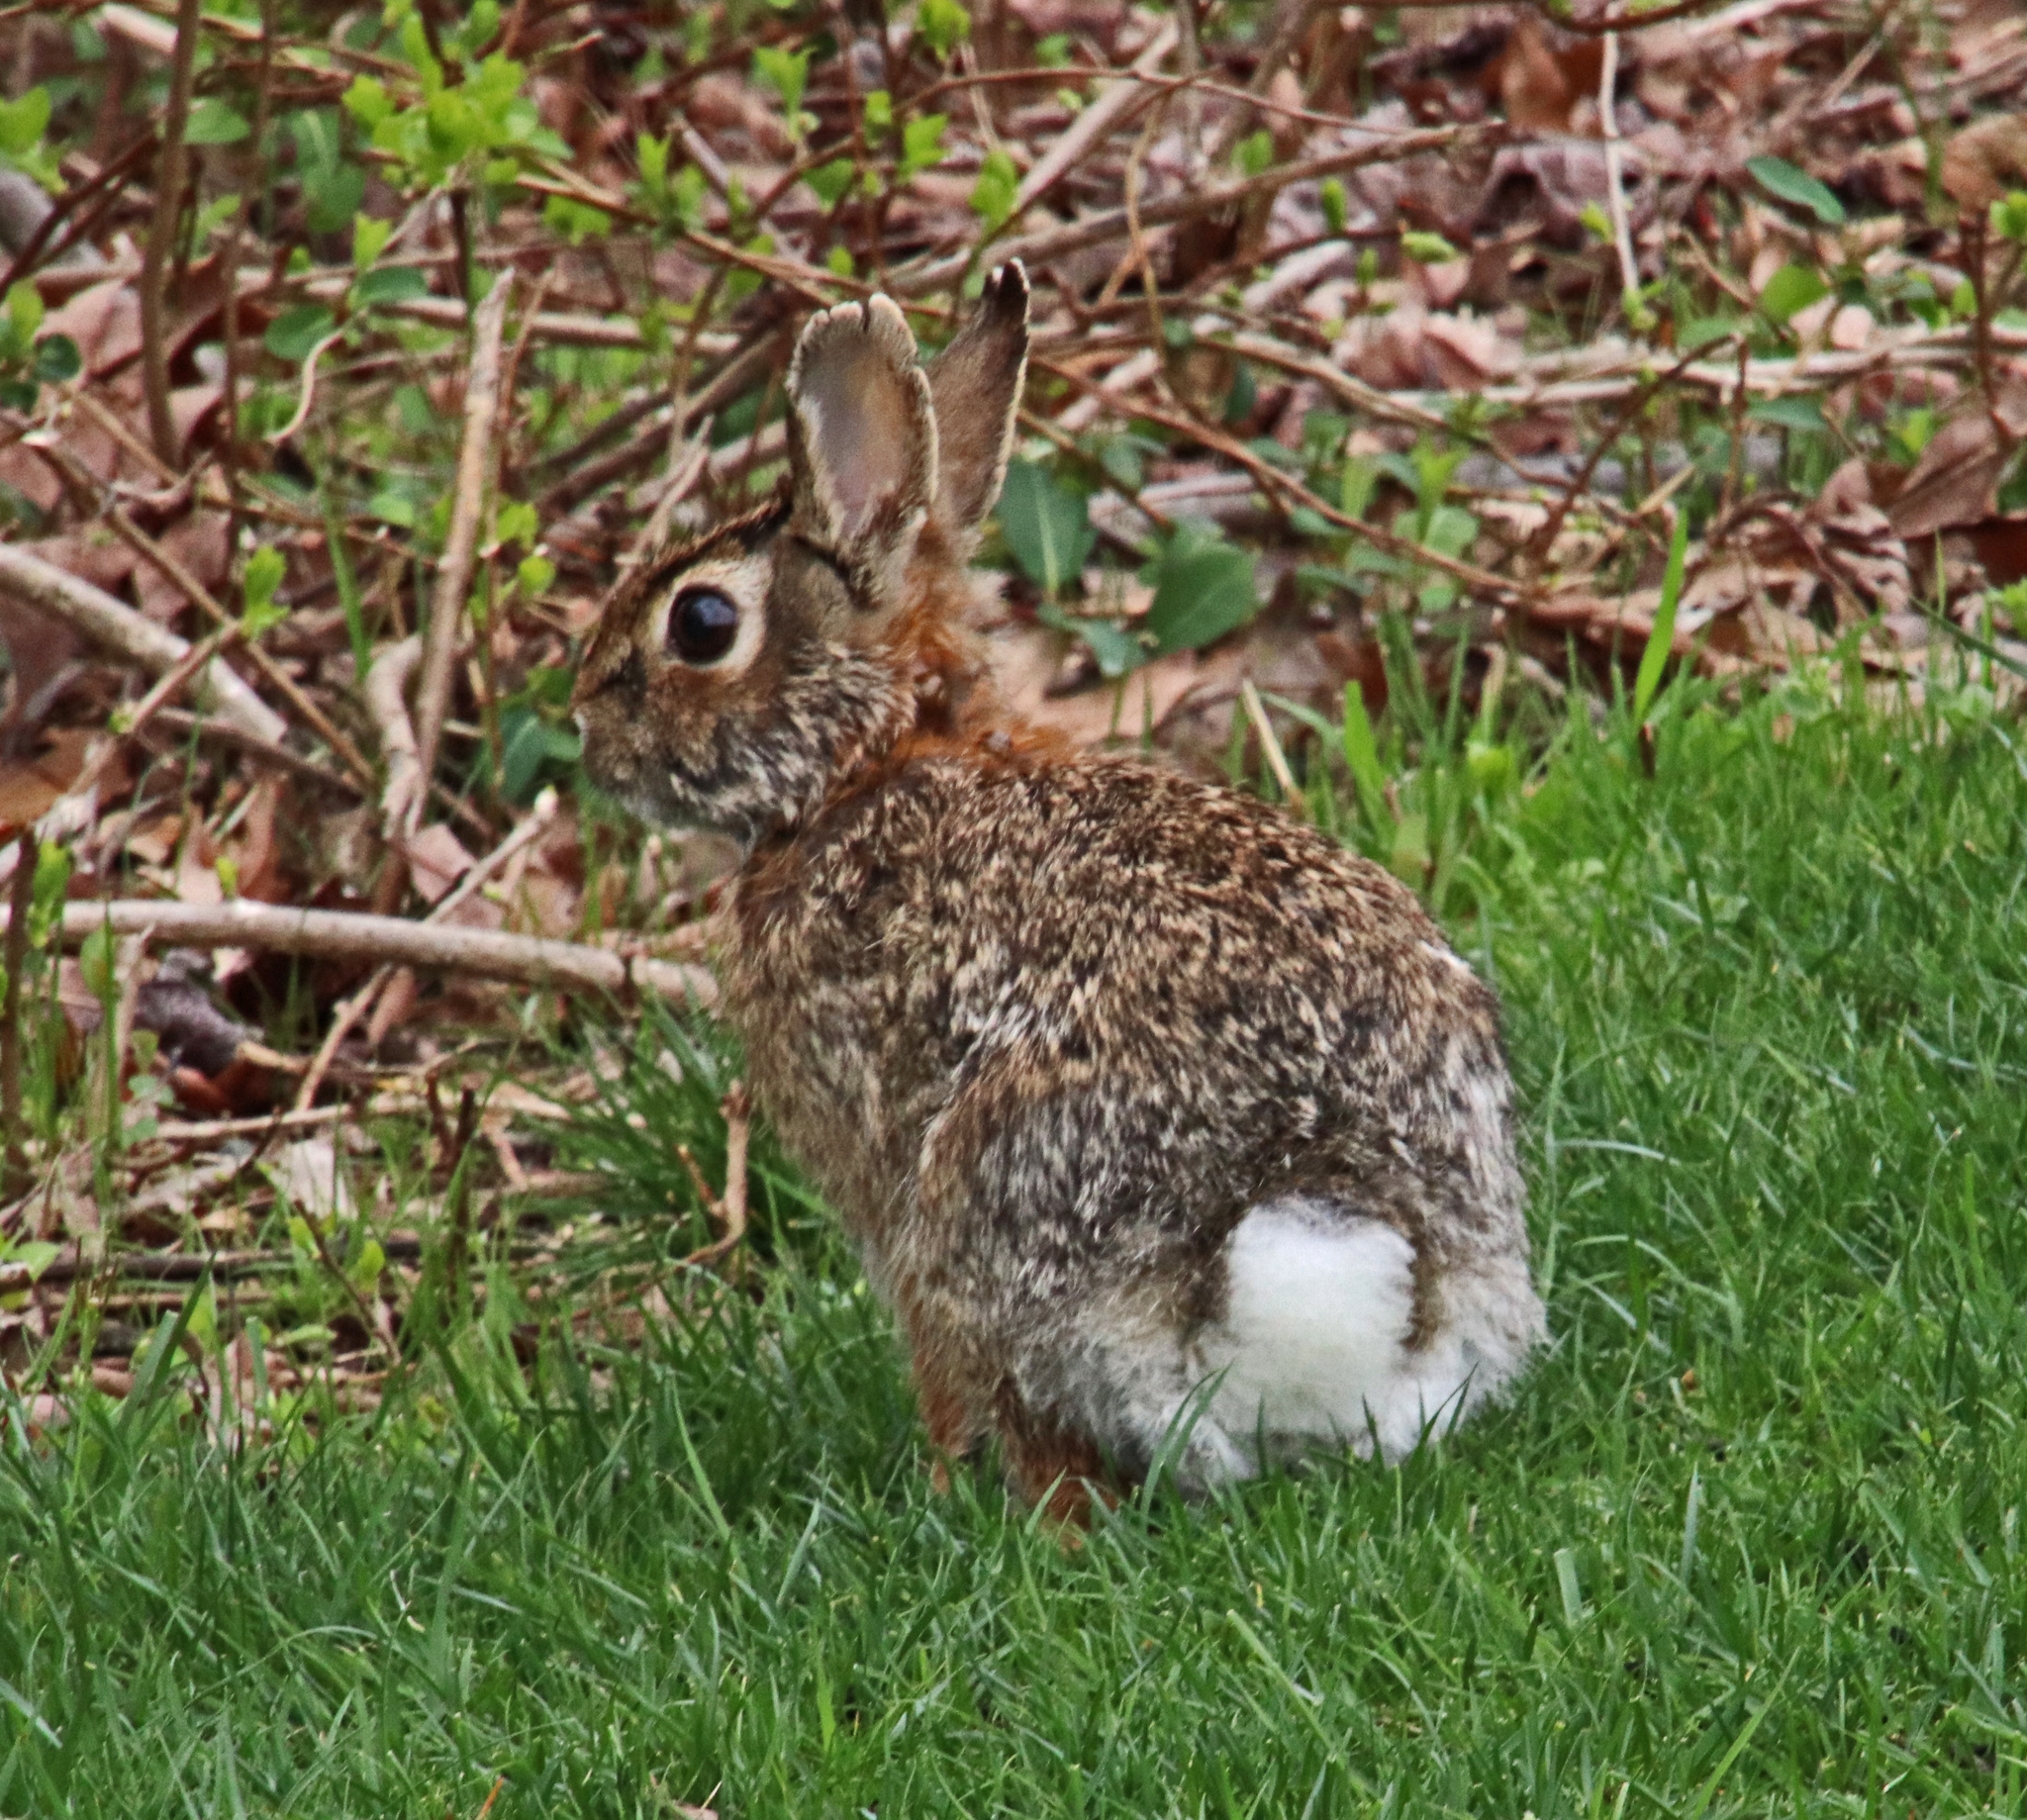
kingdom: Animalia
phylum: Chordata
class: Mammalia
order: Lagomorpha
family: Leporidae
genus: Sylvilagus
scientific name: Sylvilagus floridanus
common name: Eastern cottontail
